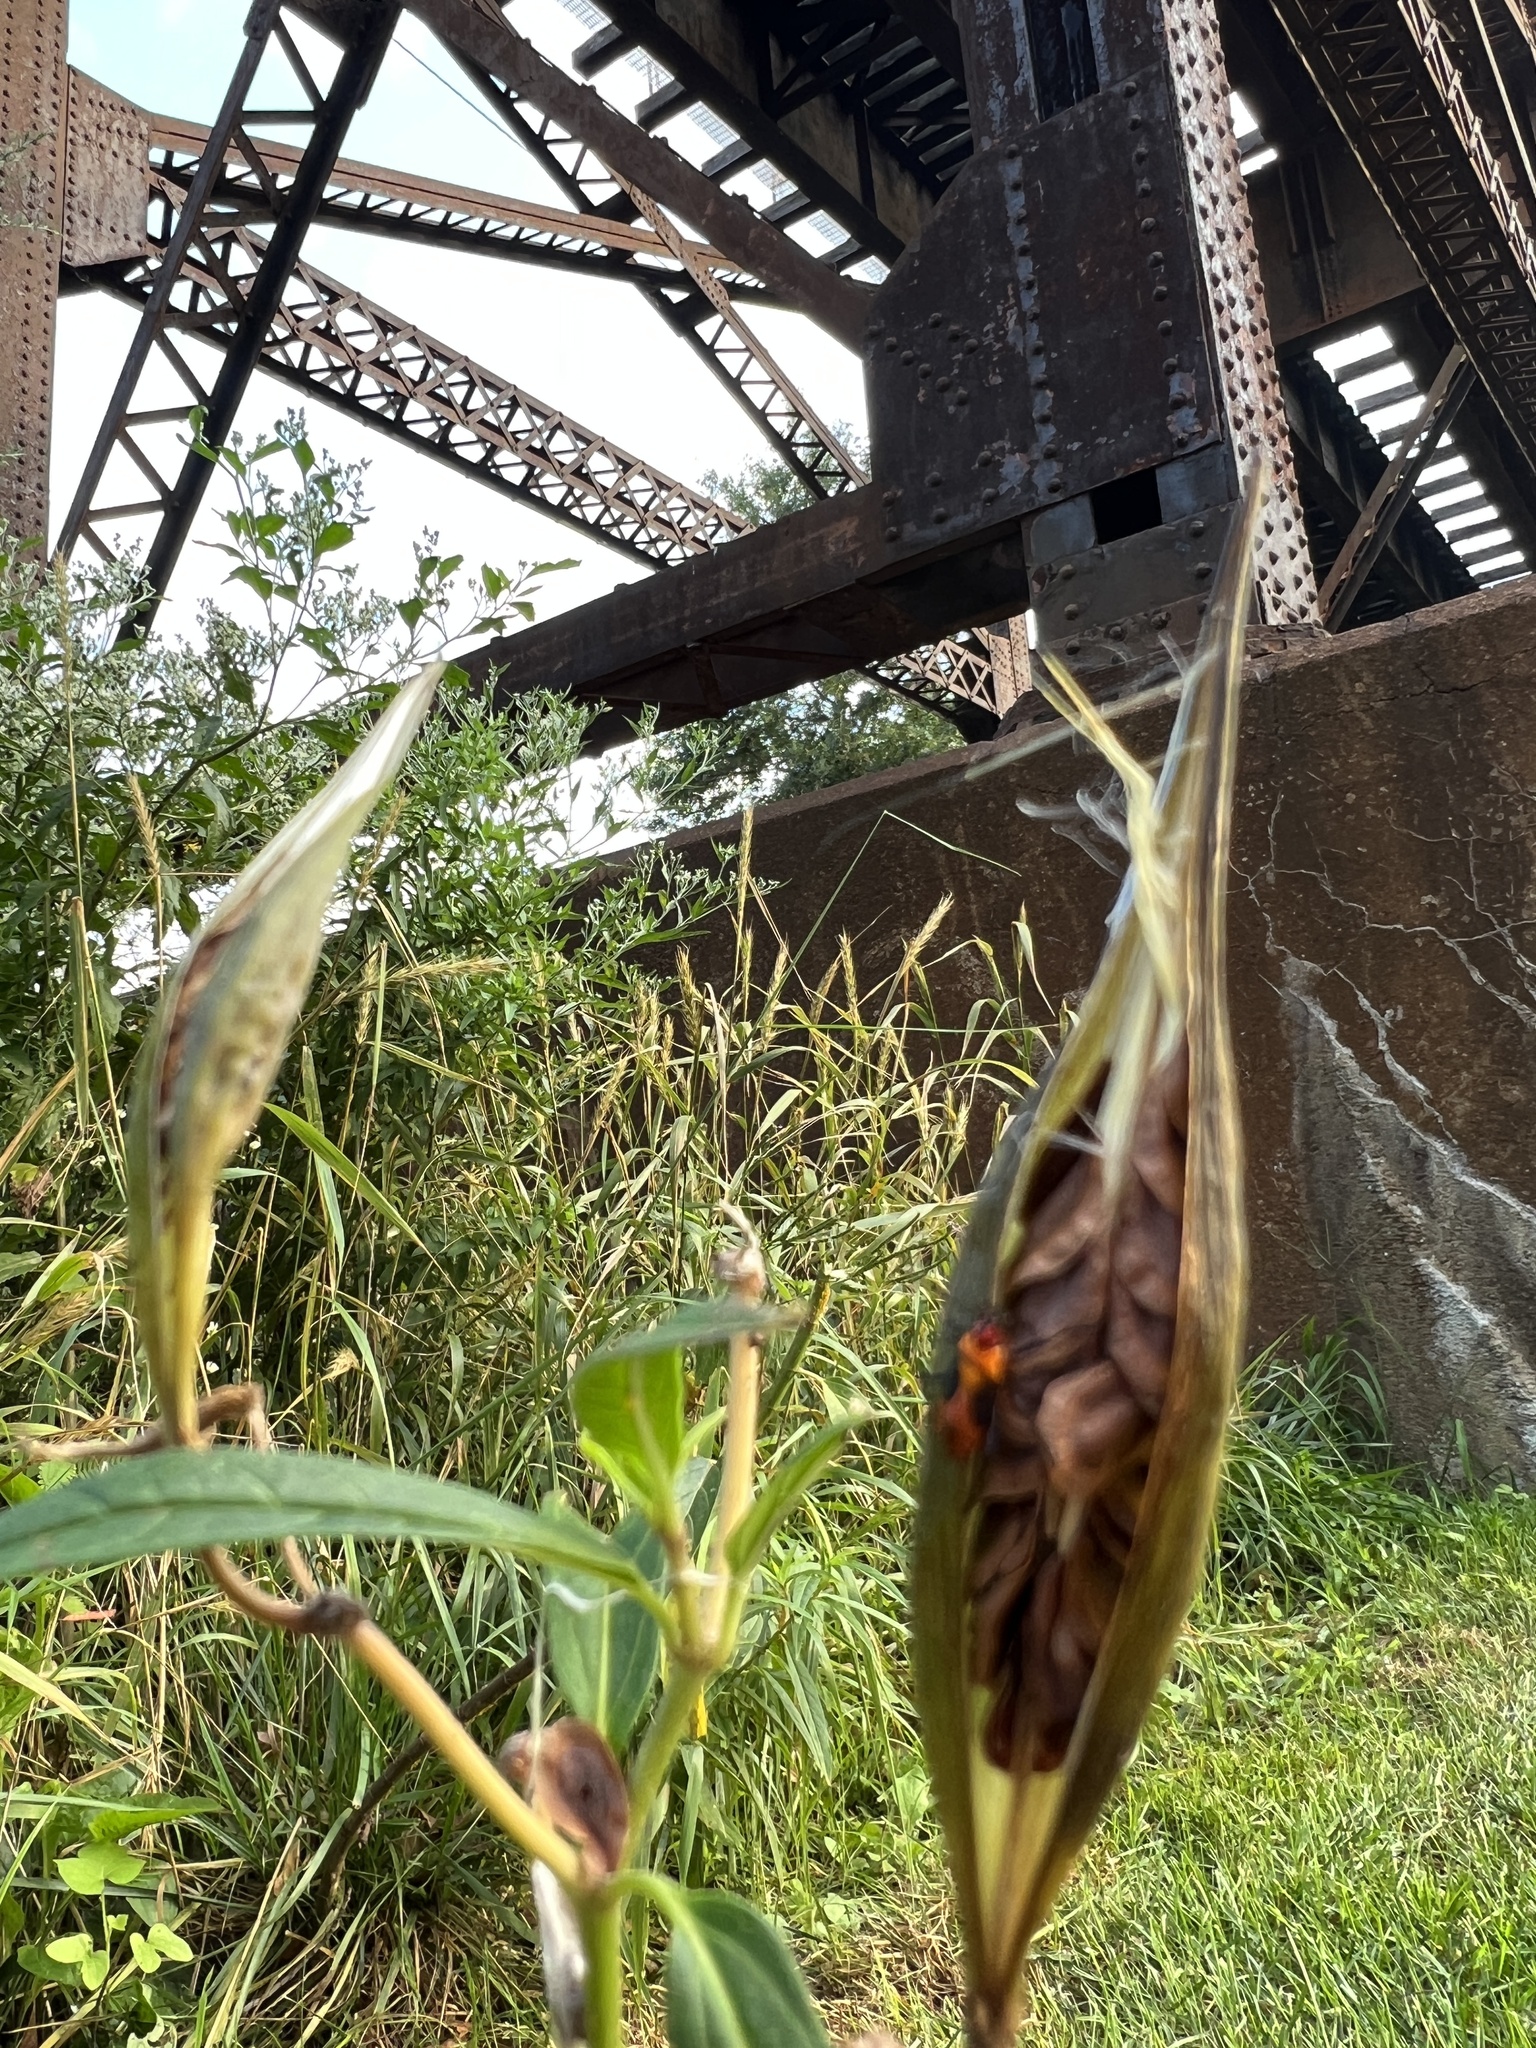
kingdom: Animalia
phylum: Arthropoda
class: Insecta
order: Hemiptera
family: Lygaeidae
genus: Oncopeltus
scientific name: Oncopeltus fasciatus
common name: Large milkweed bug
